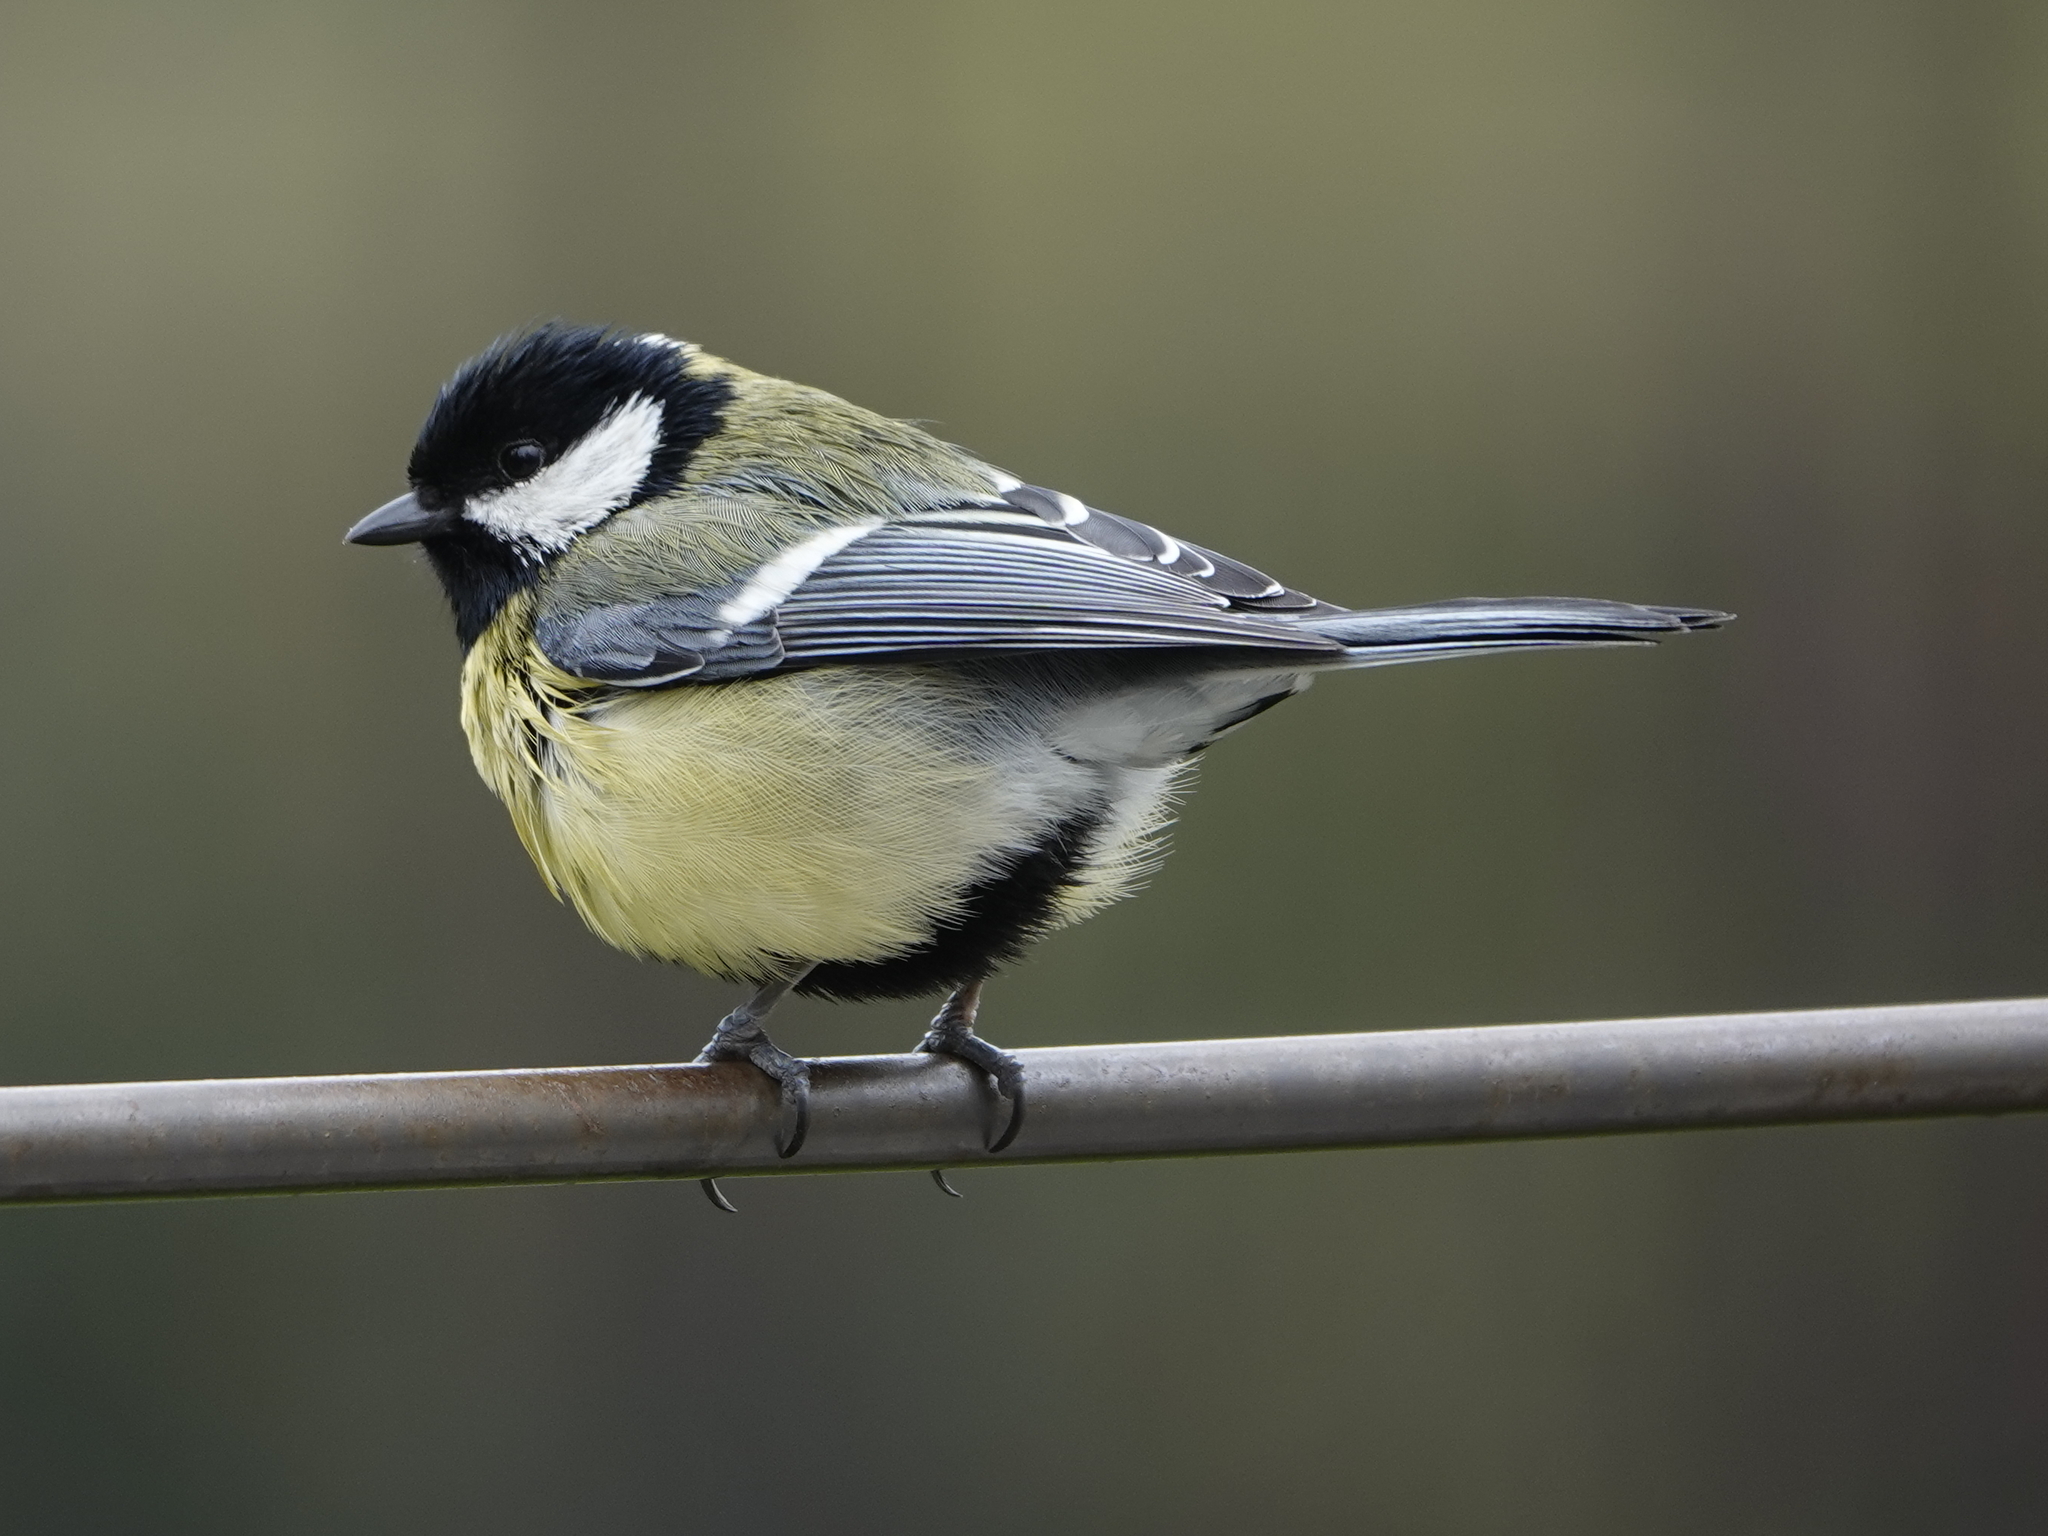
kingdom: Animalia
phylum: Chordata
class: Aves
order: Passeriformes
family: Paridae
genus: Parus
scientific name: Parus major
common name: Great tit
